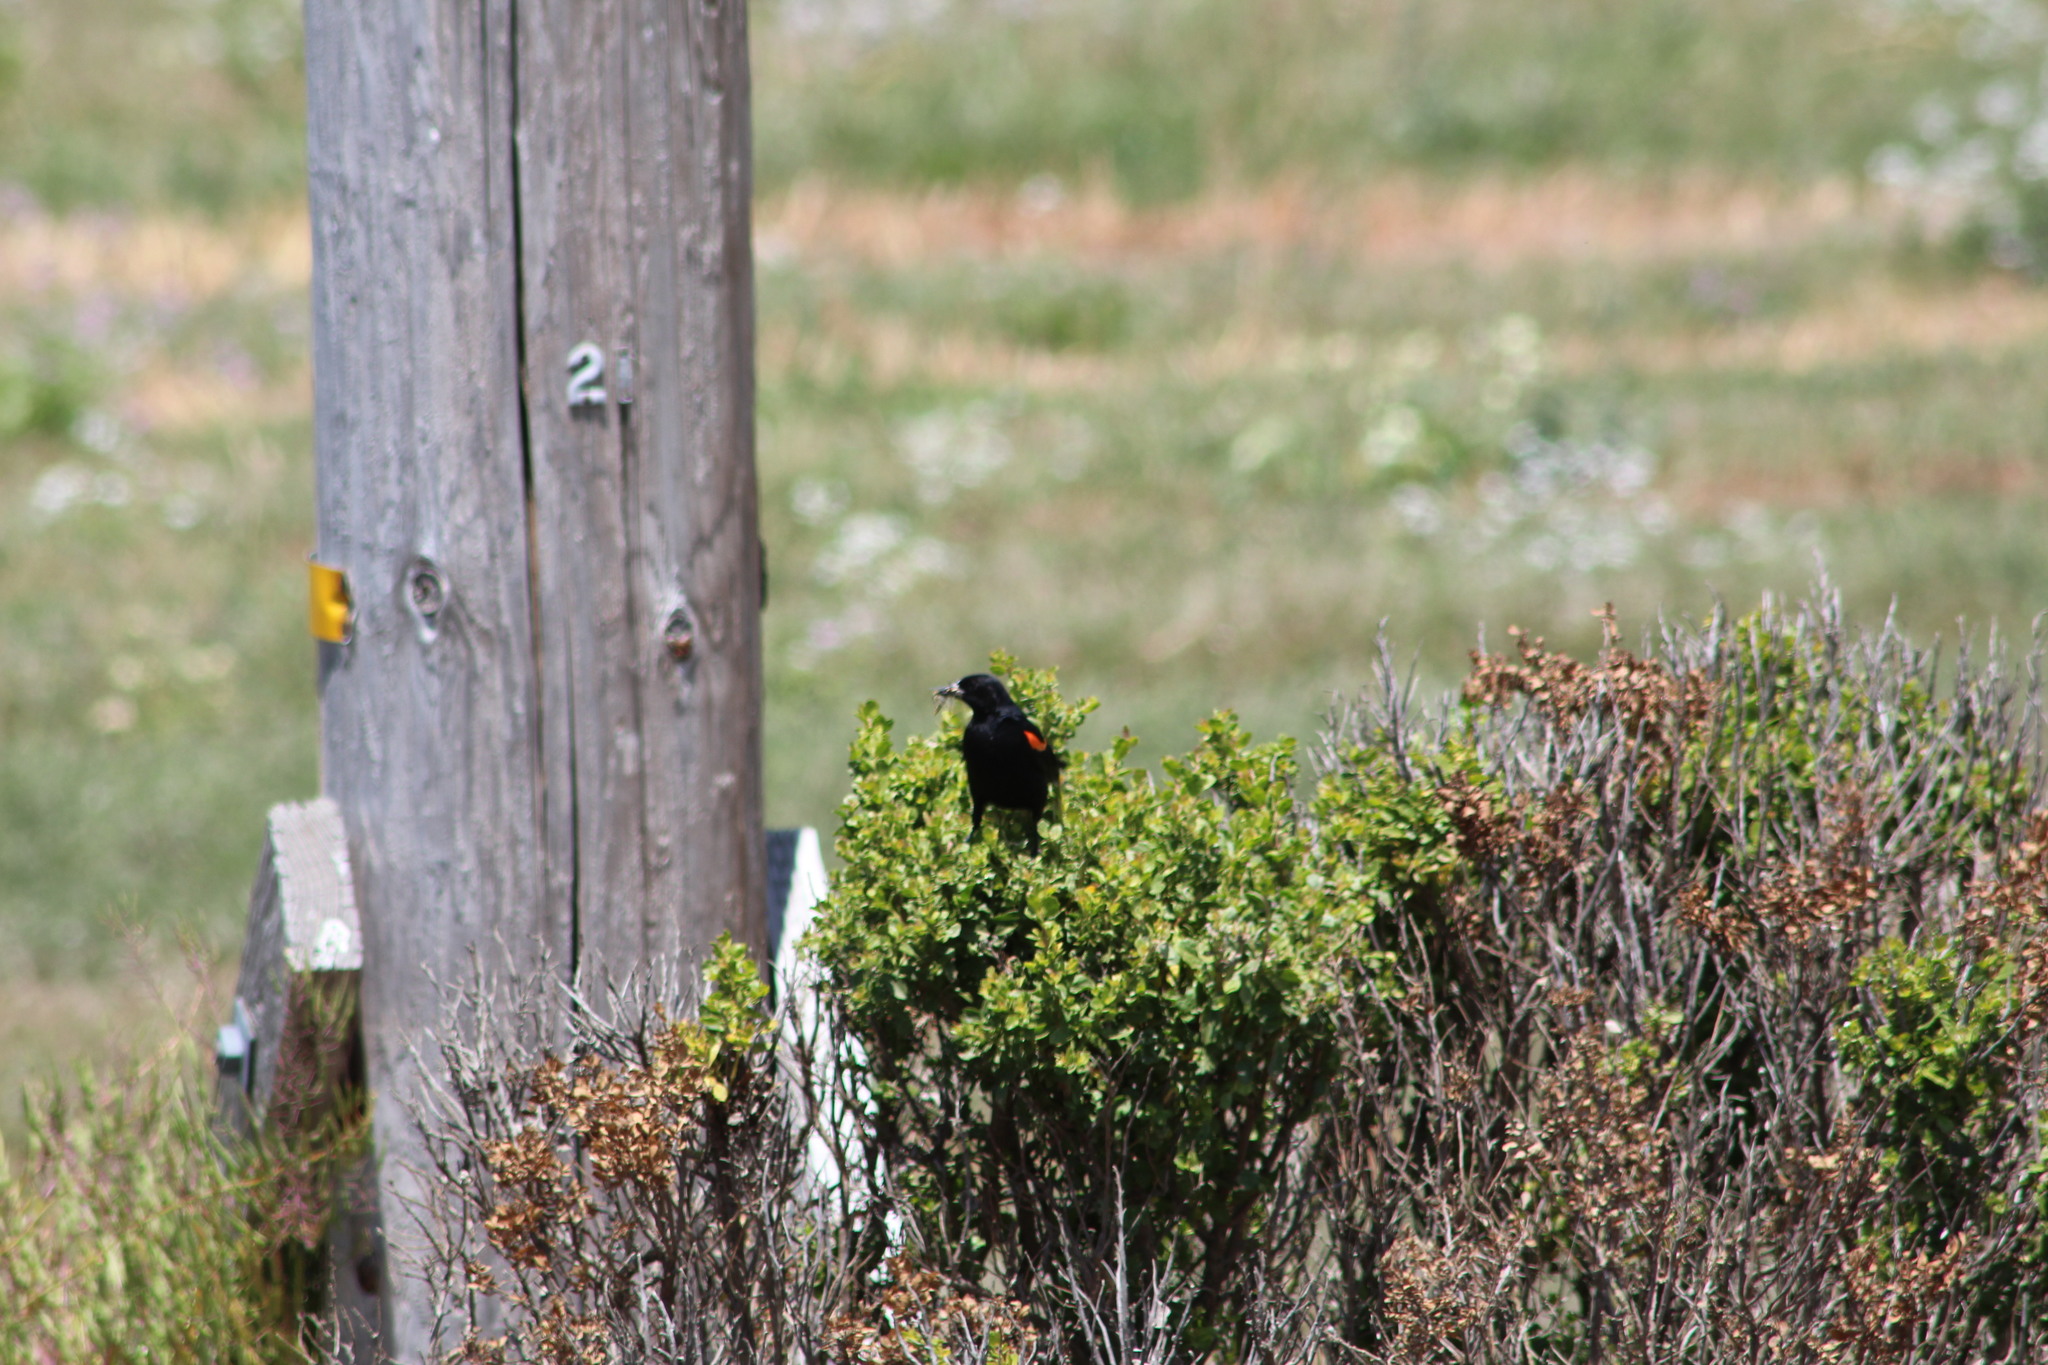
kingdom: Animalia
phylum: Chordata
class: Aves
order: Passeriformes
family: Icteridae
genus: Agelaius
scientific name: Agelaius phoeniceus
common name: Red-winged blackbird
